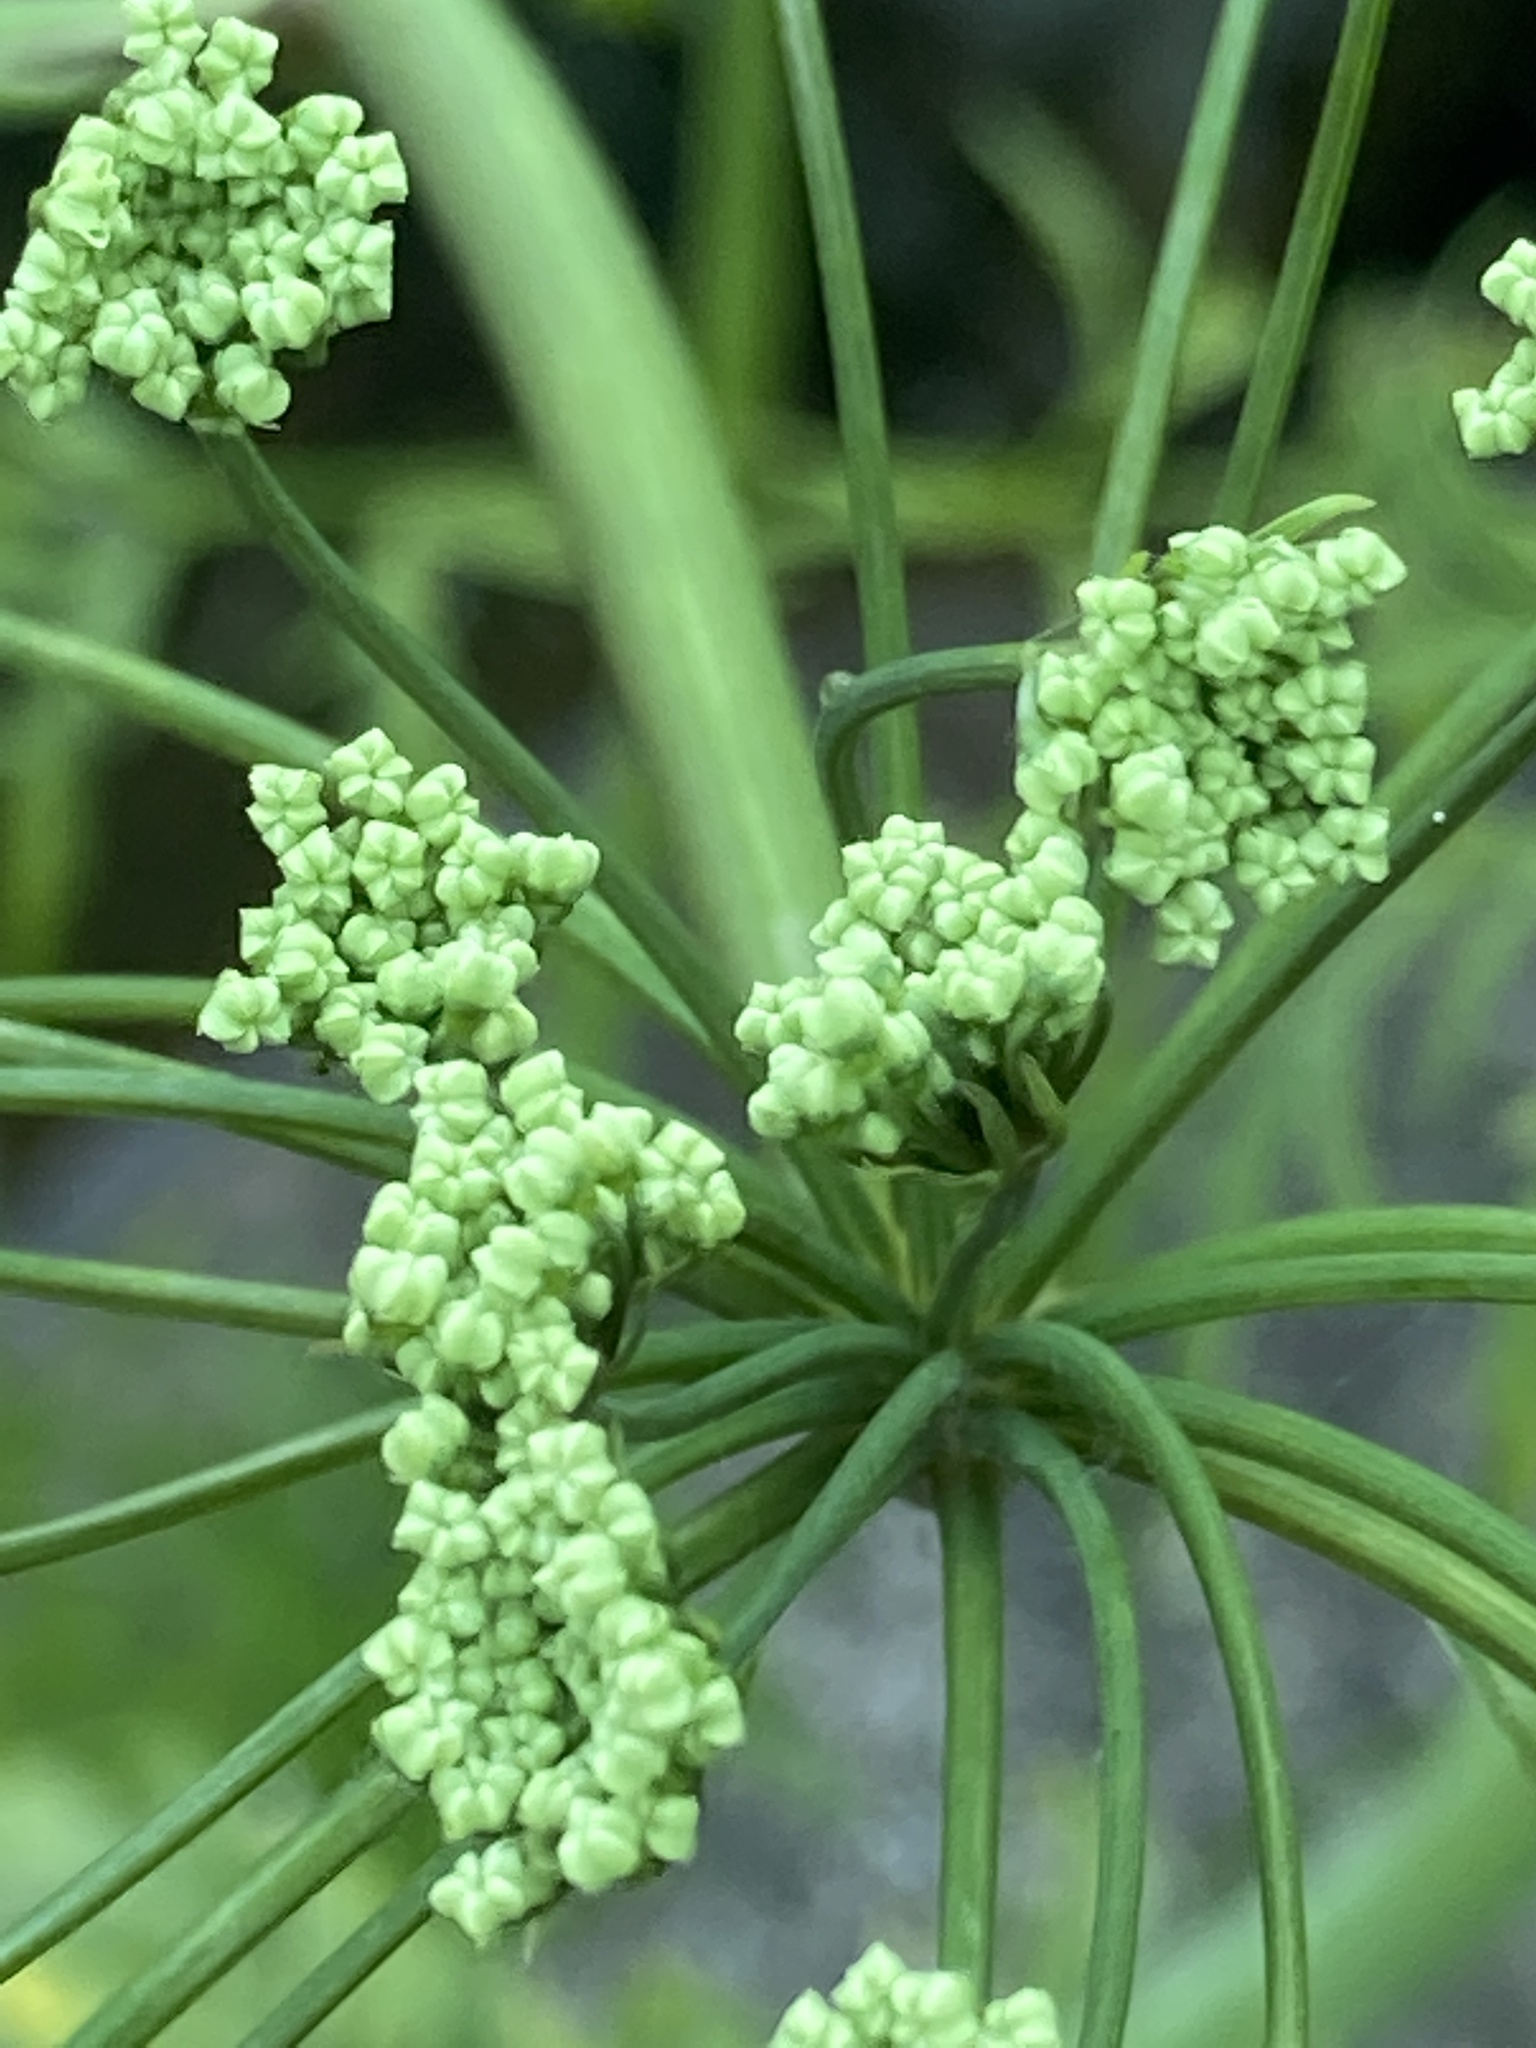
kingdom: Plantae
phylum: Tracheophyta
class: Magnoliopsida
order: Apiales
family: Apiaceae
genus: Cicuta
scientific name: Cicuta virosa
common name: Cowbane
